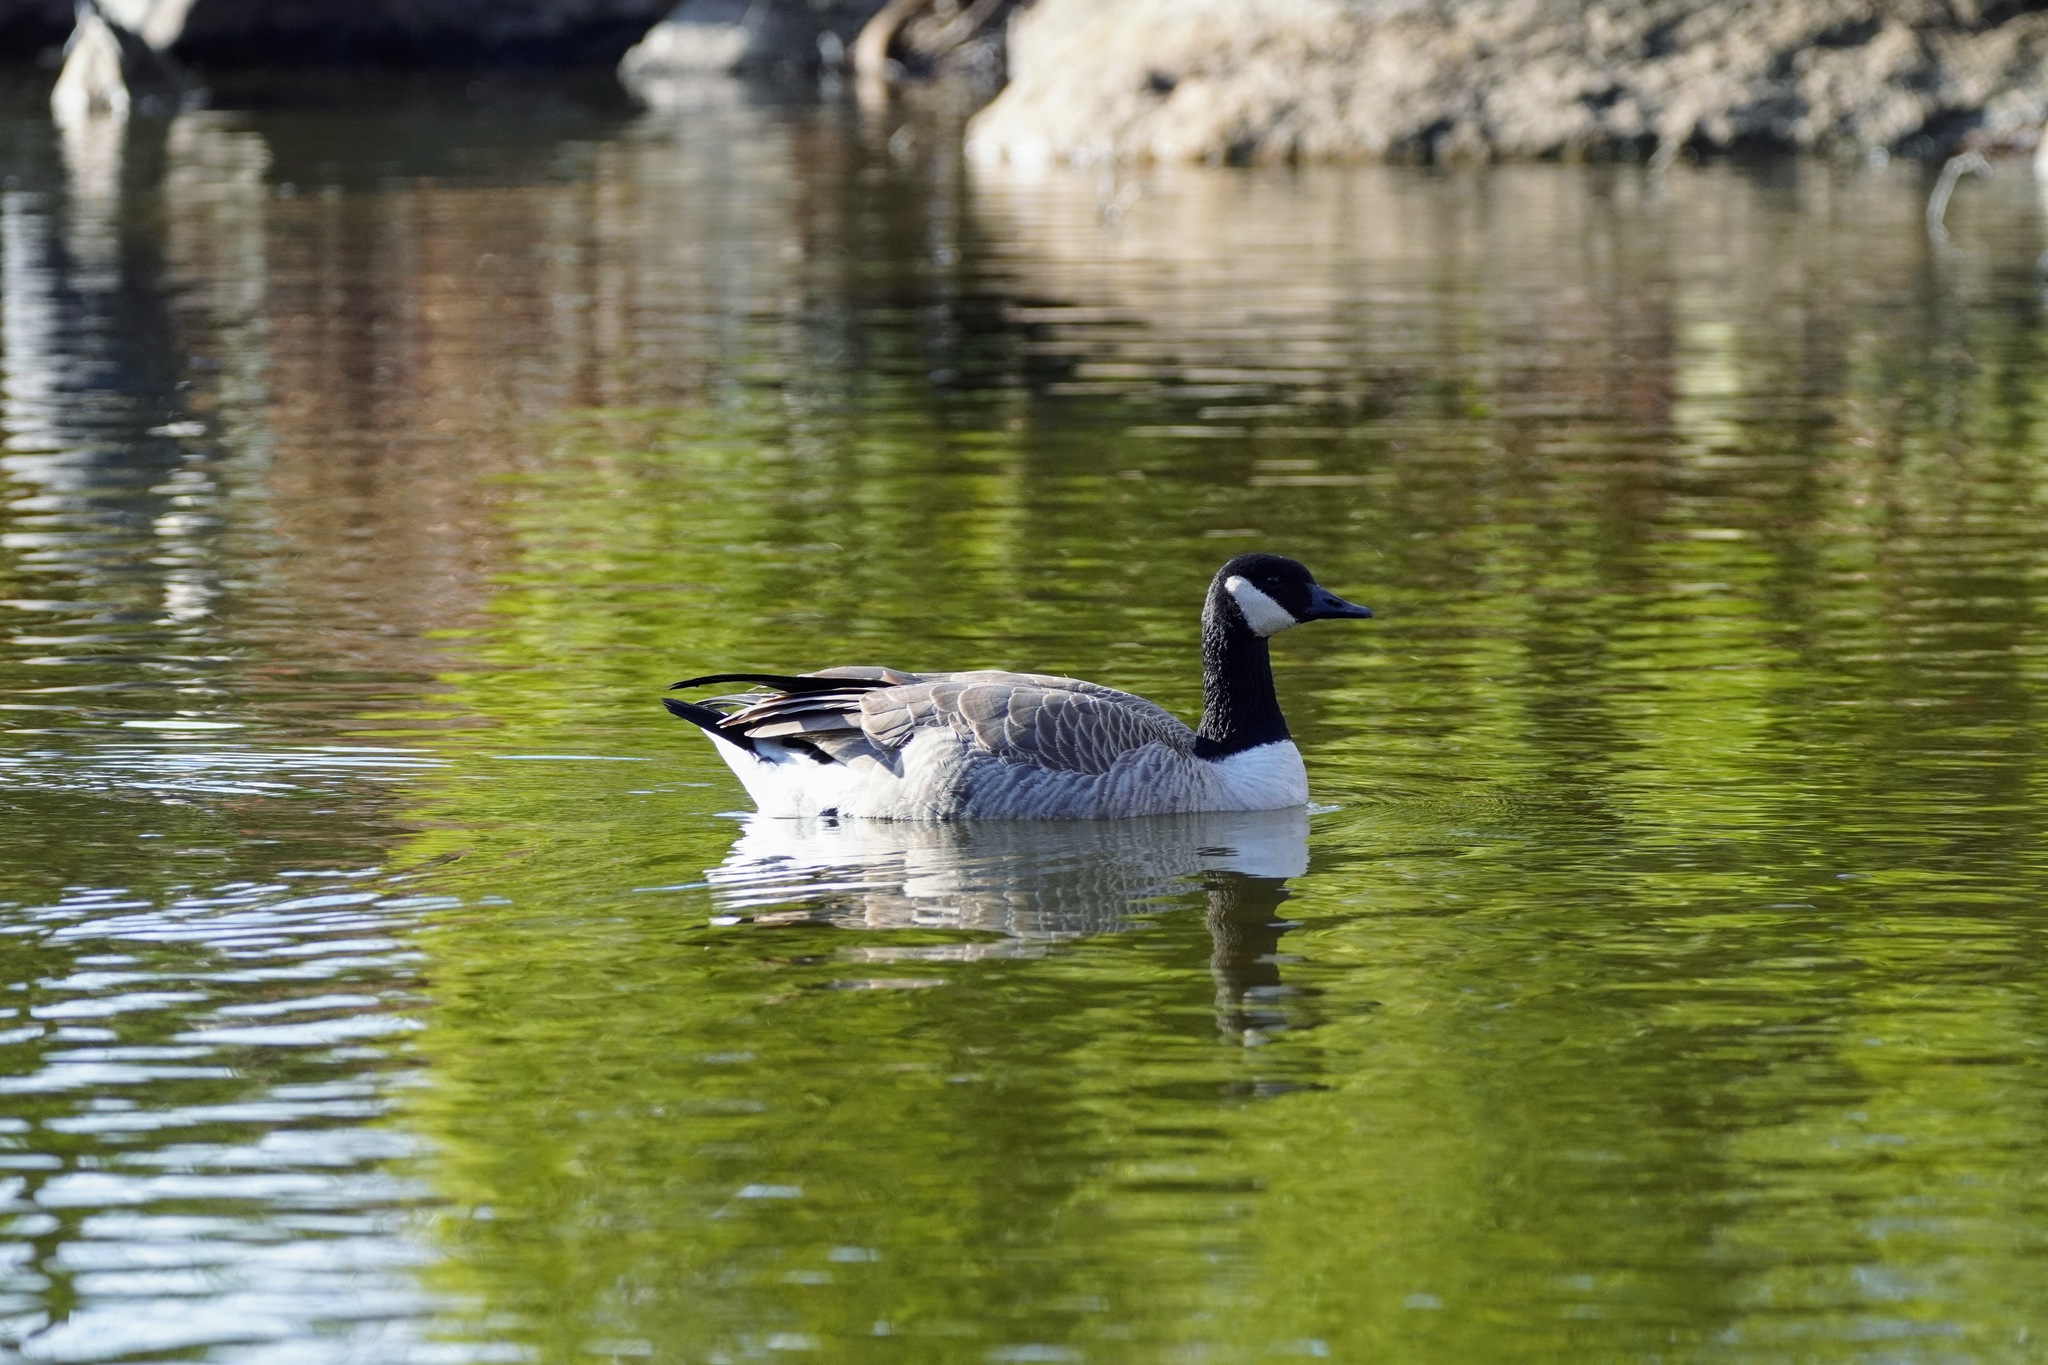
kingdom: Animalia
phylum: Chordata
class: Aves
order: Anseriformes
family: Anatidae
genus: Branta
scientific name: Branta canadensis
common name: Canada goose
